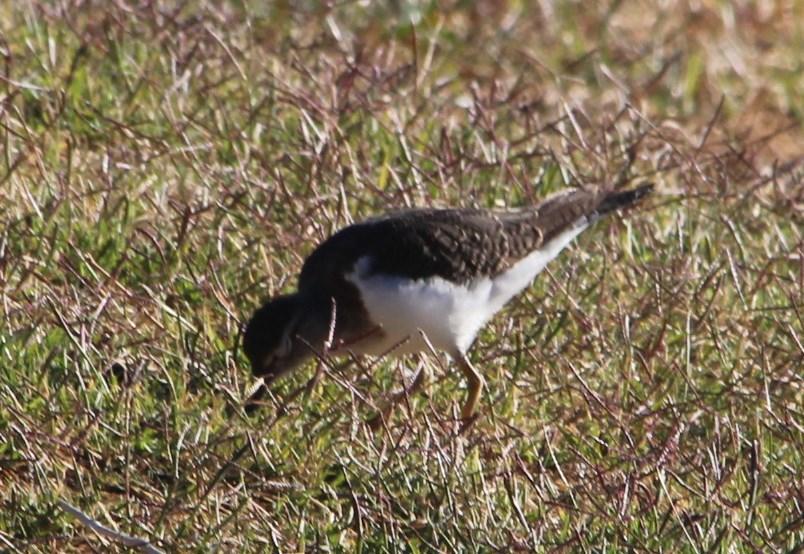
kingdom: Animalia
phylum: Chordata
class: Aves
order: Charadriiformes
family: Scolopacidae
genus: Actitis
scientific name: Actitis hypoleucos
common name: Common sandpiper
